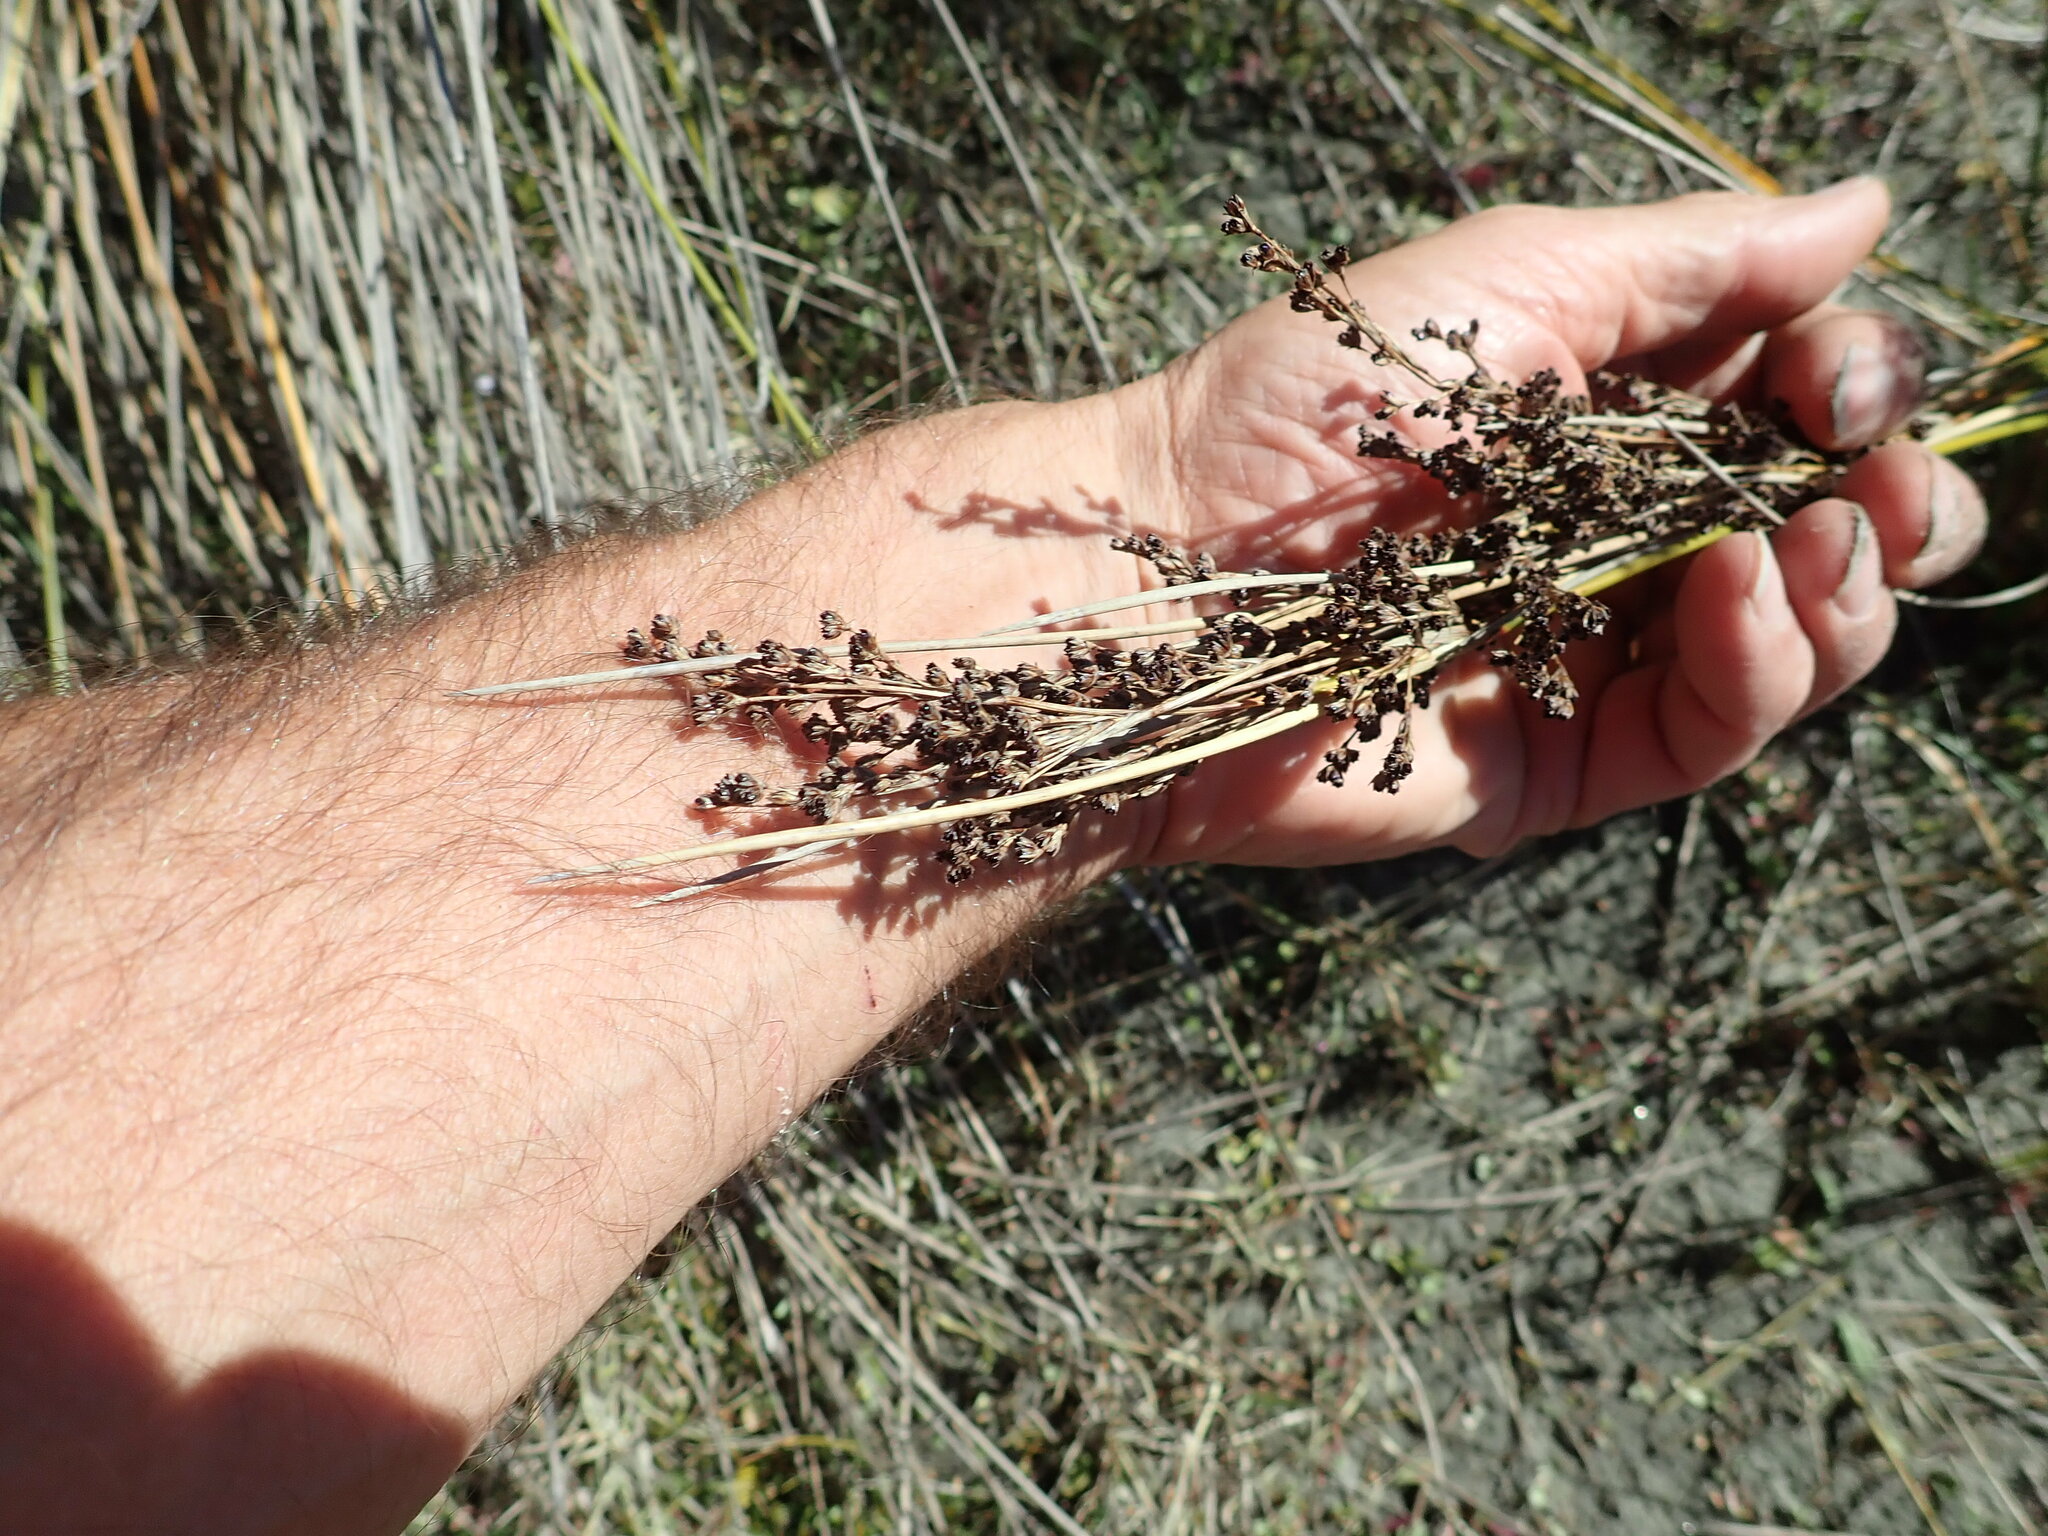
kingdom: Plantae
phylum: Tracheophyta
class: Liliopsida
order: Poales
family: Juncaceae
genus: Juncus
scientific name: Juncus kraussii
